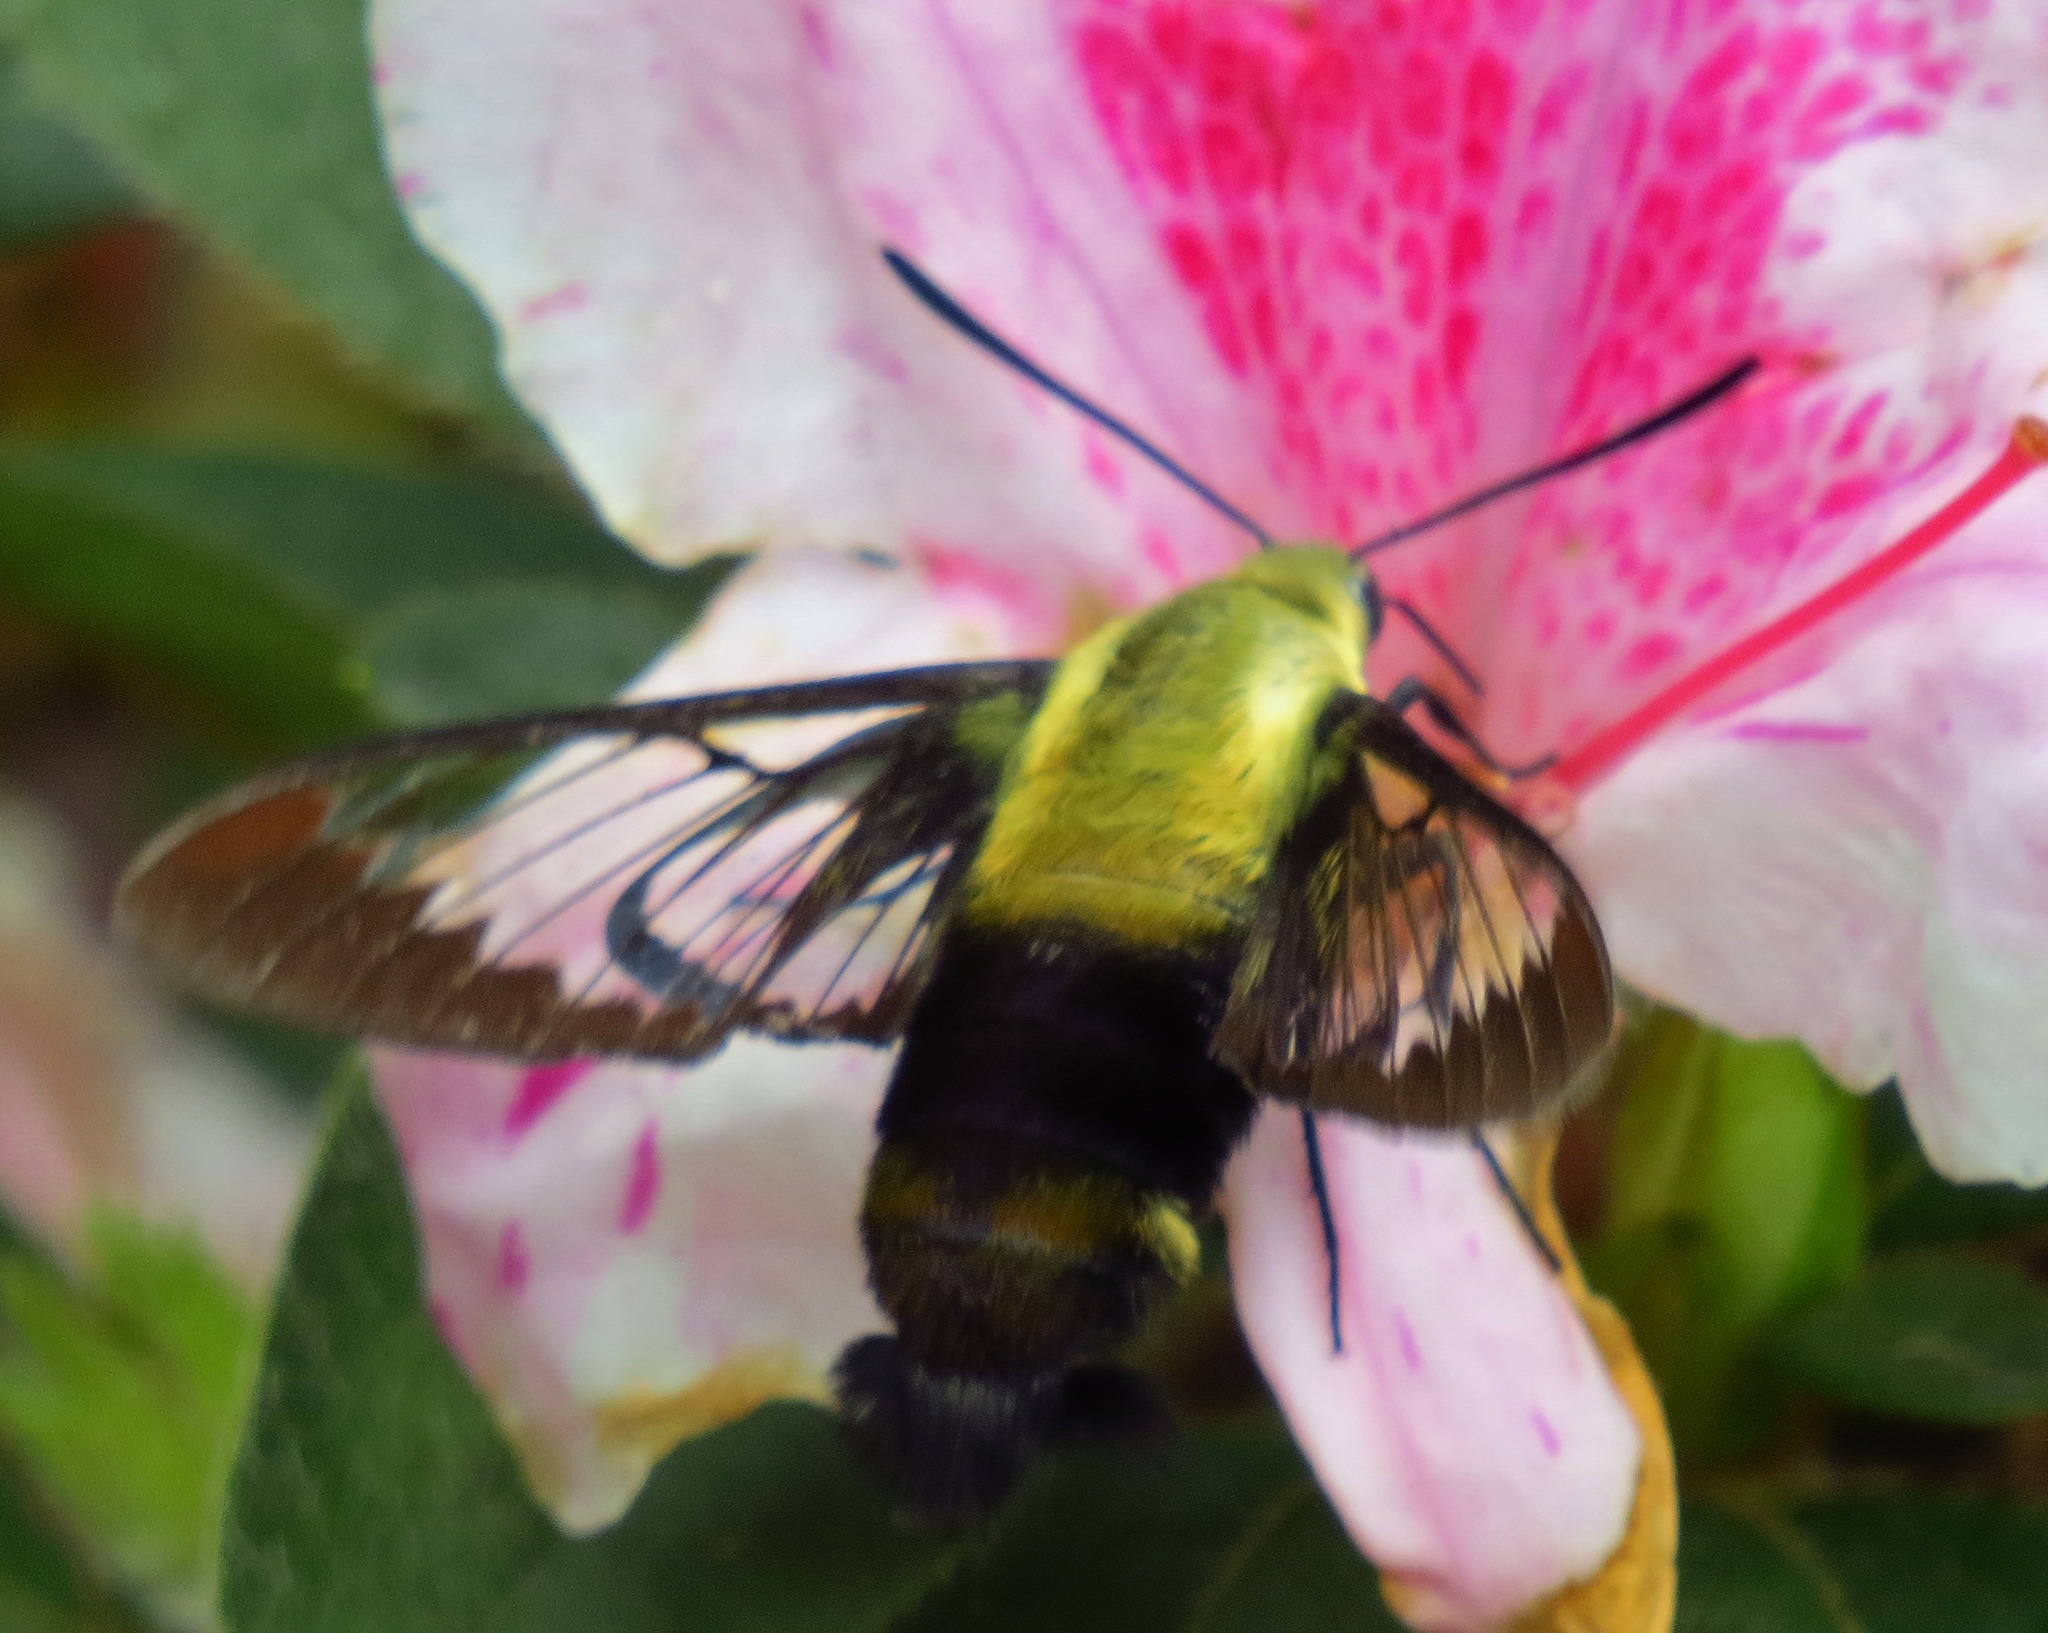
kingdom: Animalia
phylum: Arthropoda
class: Insecta
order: Lepidoptera
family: Sphingidae
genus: Hemaris
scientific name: Hemaris diffinis
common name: Bumblebee moth
